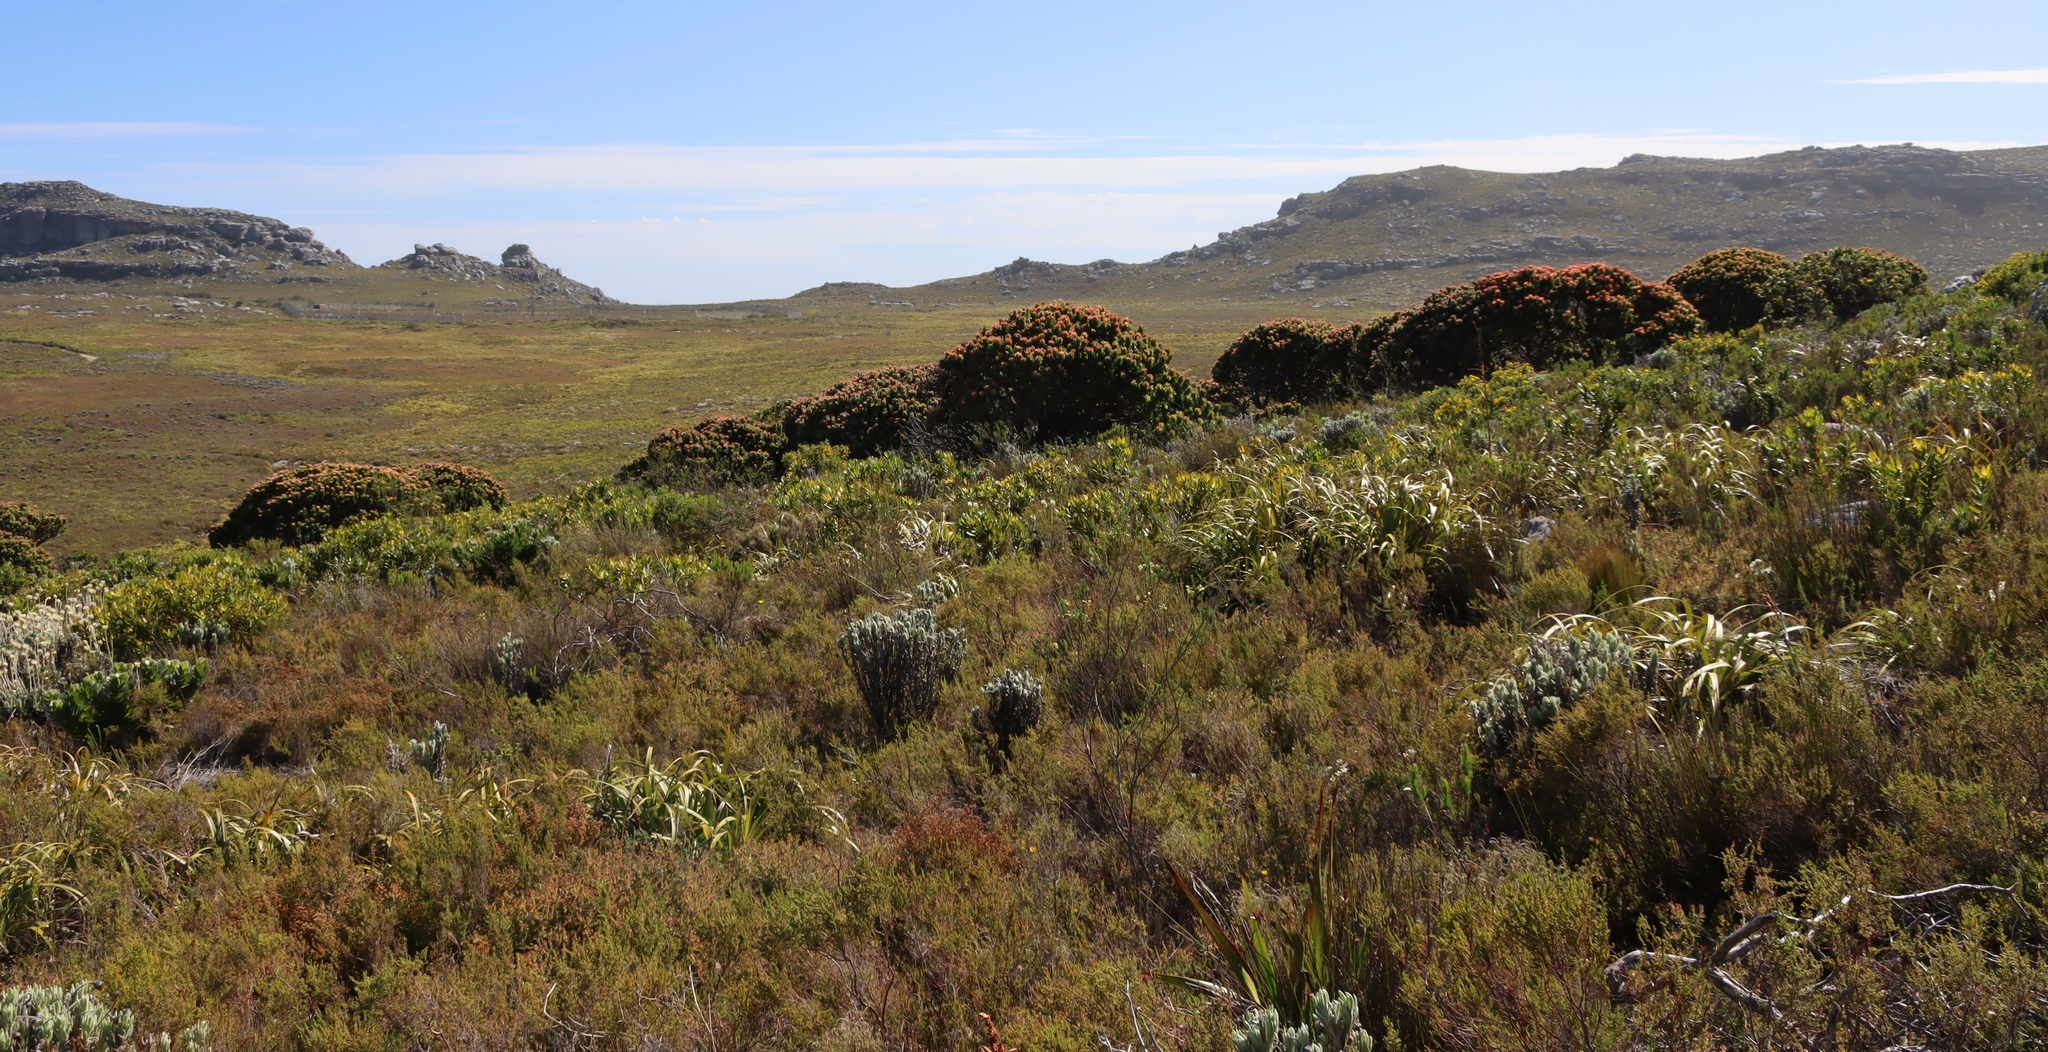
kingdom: Plantae
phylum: Tracheophyta
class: Magnoliopsida
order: Asterales
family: Asteraceae
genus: Syncarpha
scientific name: Syncarpha vestita
